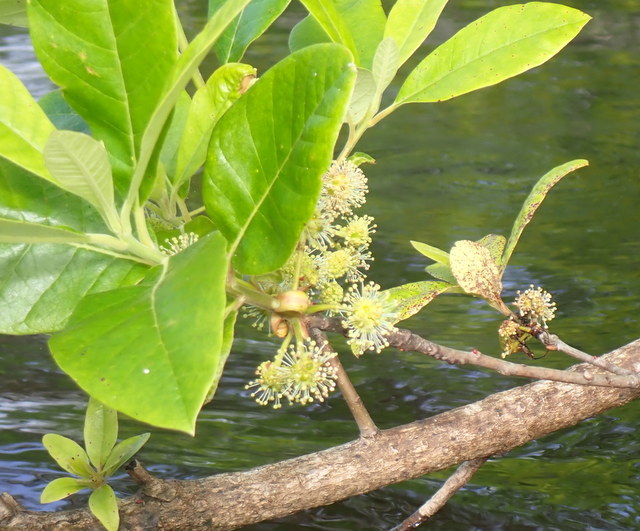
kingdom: Plantae
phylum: Tracheophyta
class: Magnoliopsida
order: Cornales
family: Nyssaceae
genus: Nyssa
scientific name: Nyssa ogeche
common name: Ogeechee tupelo
